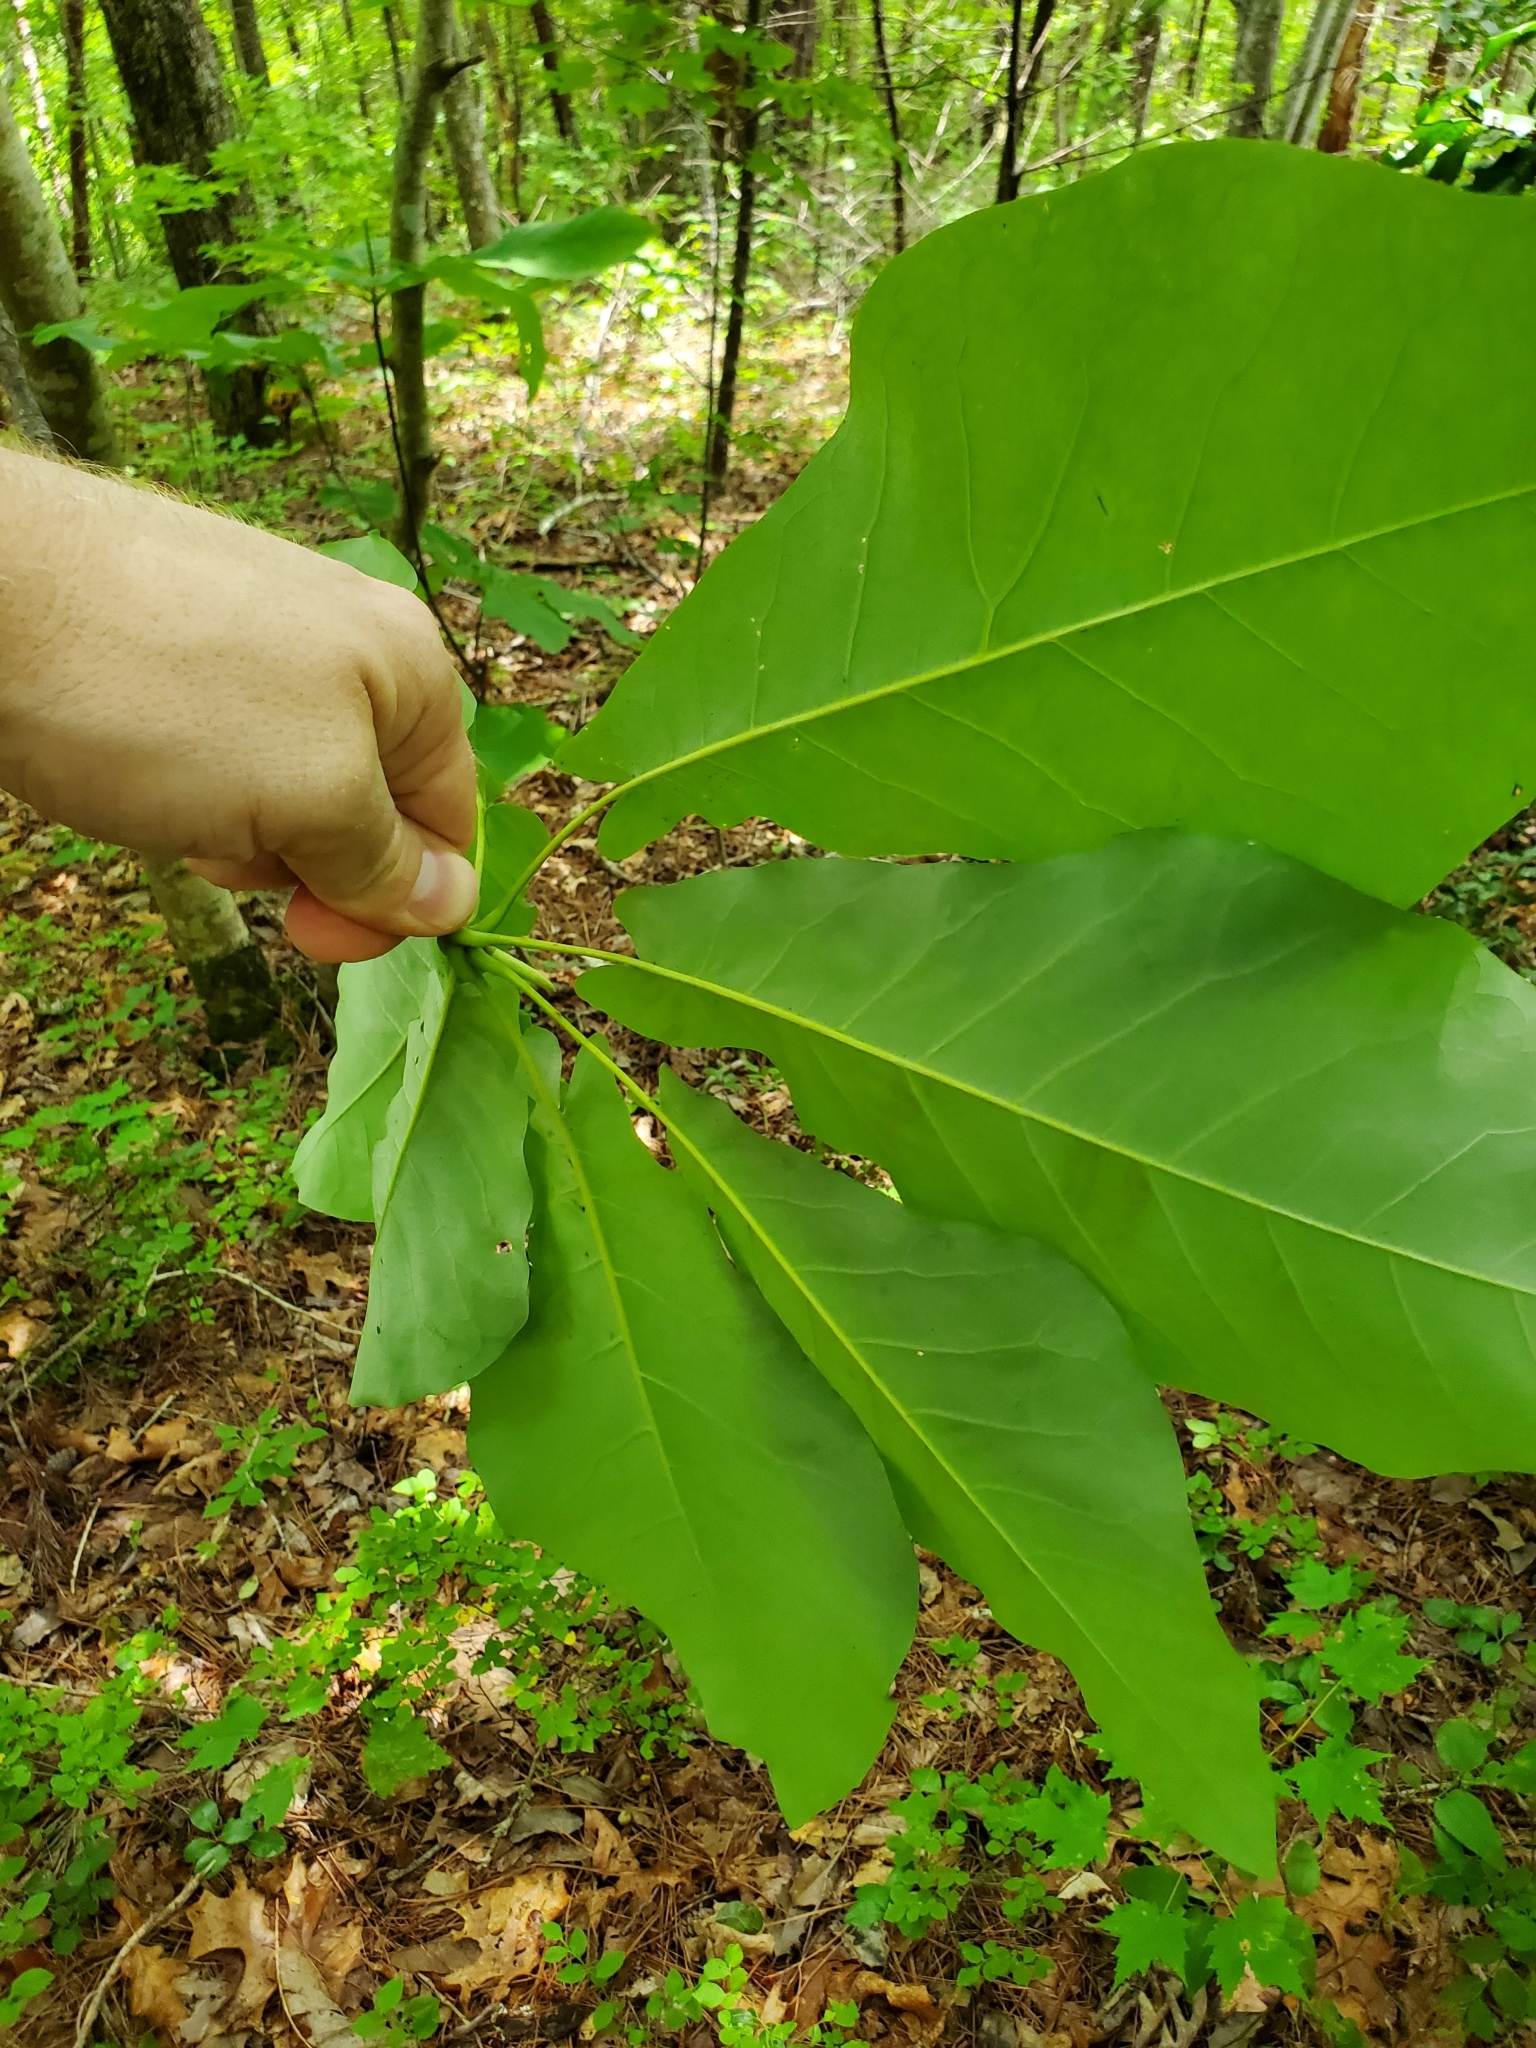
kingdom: Plantae
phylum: Tracheophyta
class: Magnoliopsida
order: Magnoliales
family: Magnoliaceae
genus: Magnolia
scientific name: Magnolia fraseri
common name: Fraser's magnolia
